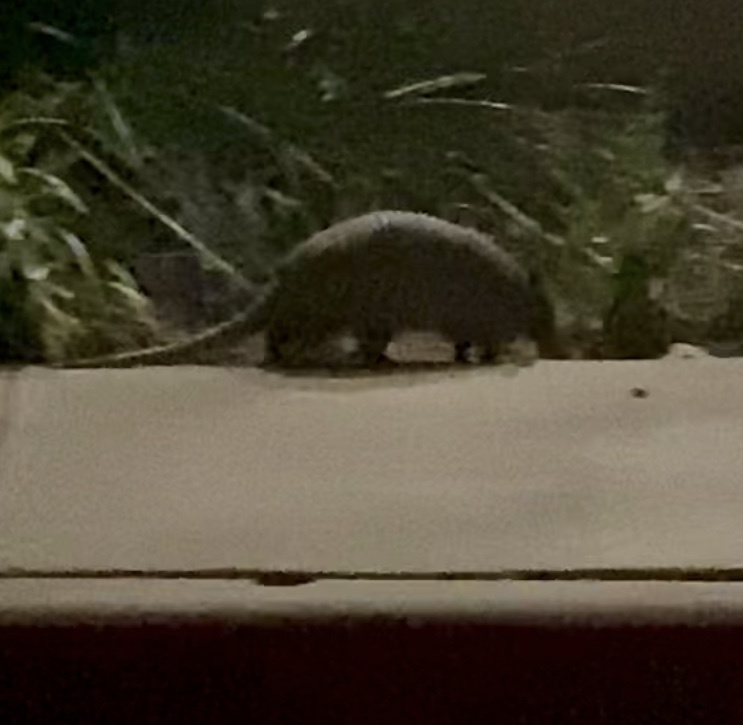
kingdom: Animalia
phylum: Chordata
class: Mammalia
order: Cingulata
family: Dasypodidae
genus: Dasypus
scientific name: Dasypus novemcinctus
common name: Nine-banded armadillo
